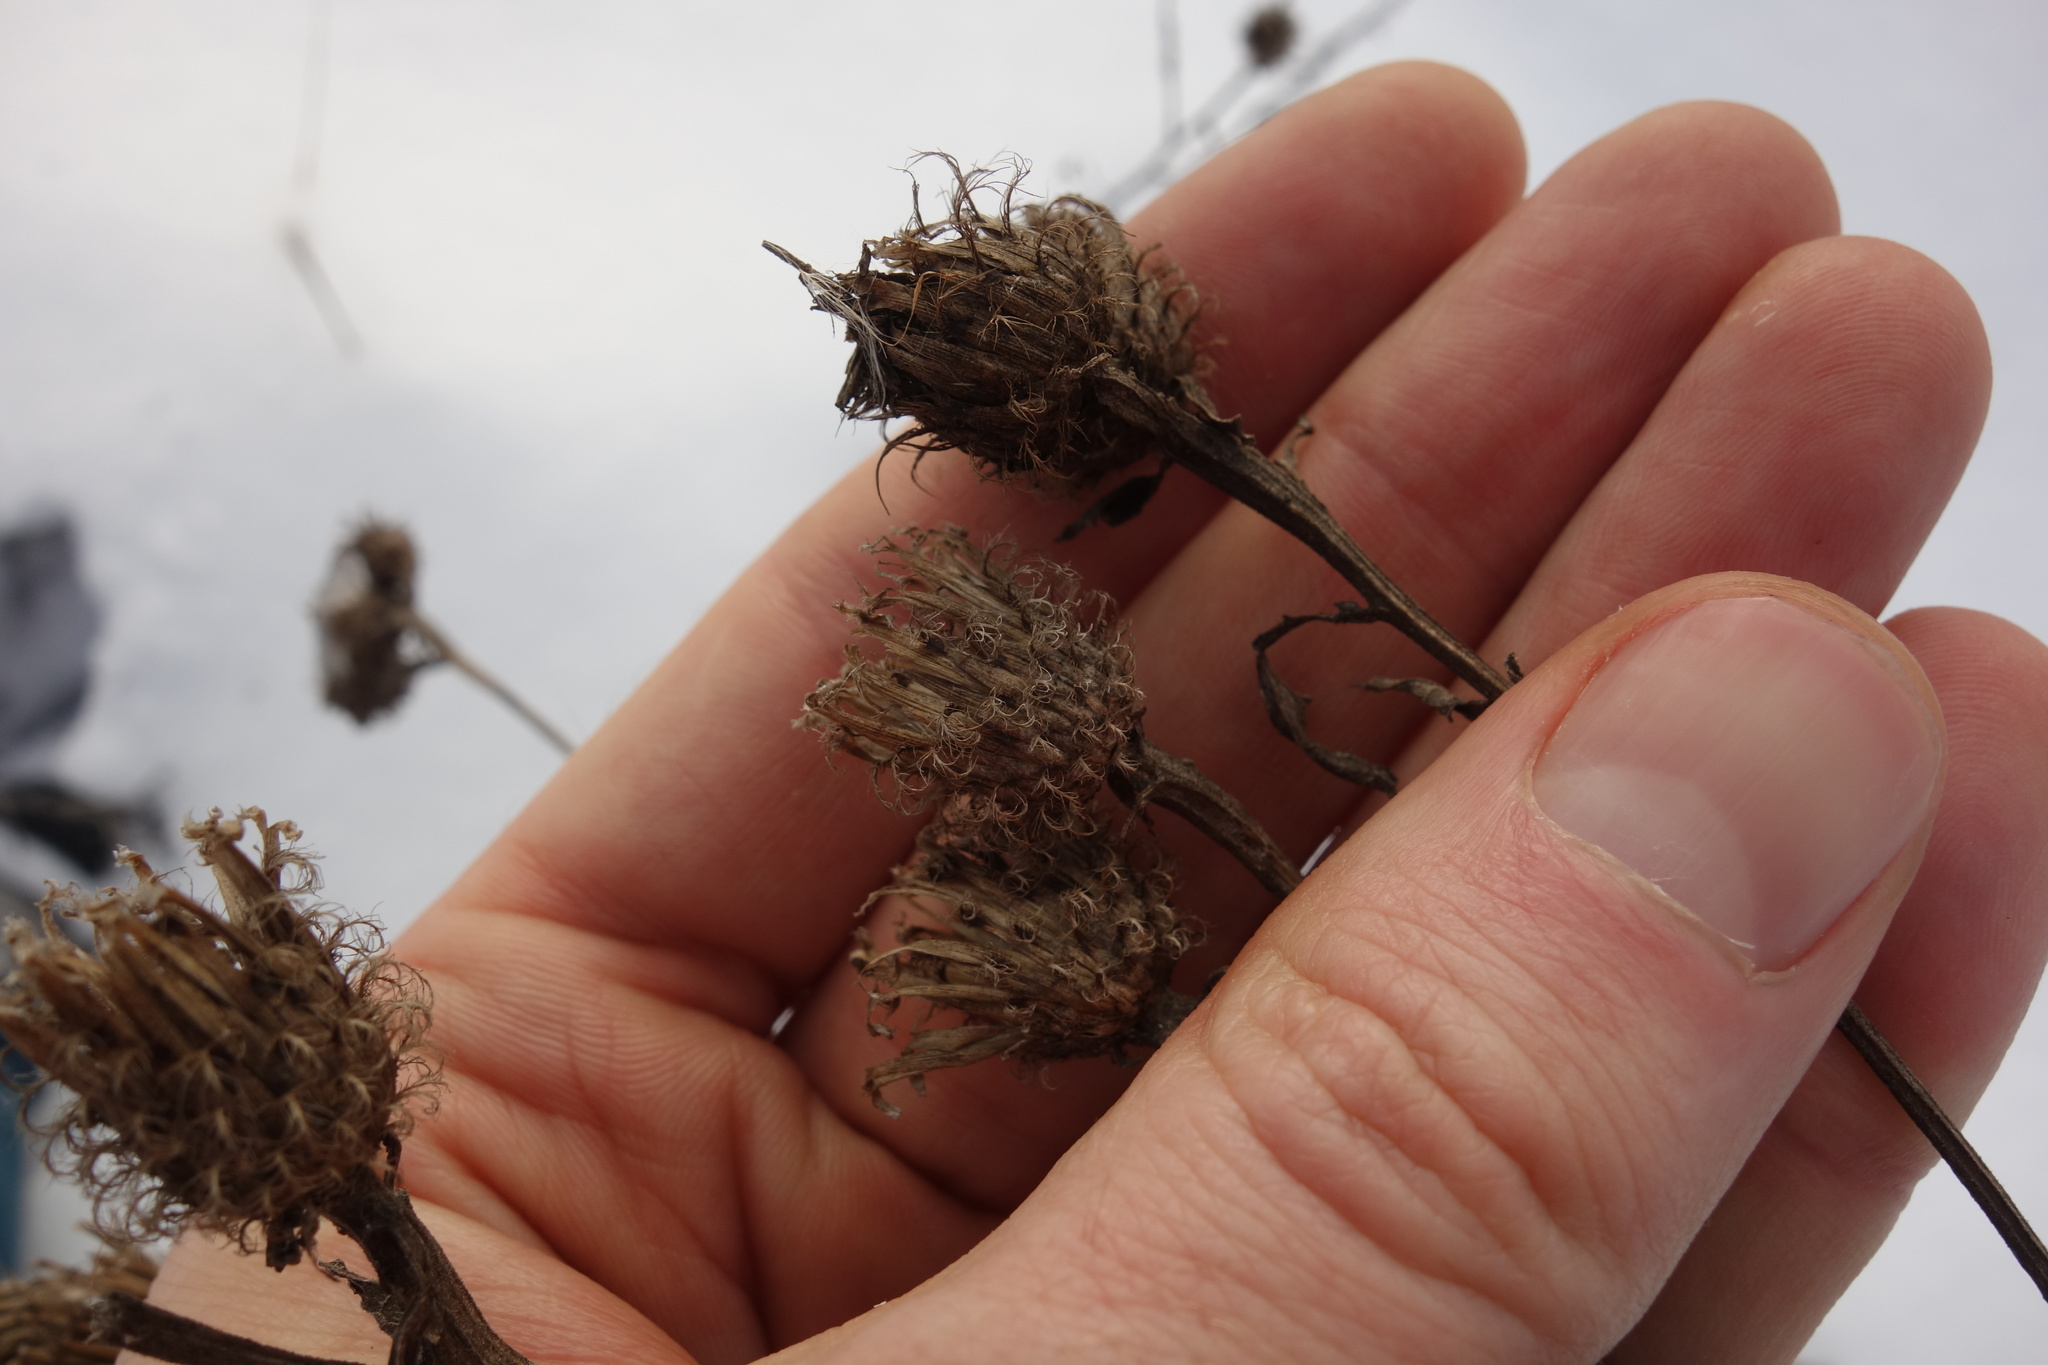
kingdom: Plantae
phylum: Tracheophyta
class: Magnoliopsida
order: Asterales
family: Asteraceae
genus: Centaurea
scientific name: Centaurea pseudophrygia
